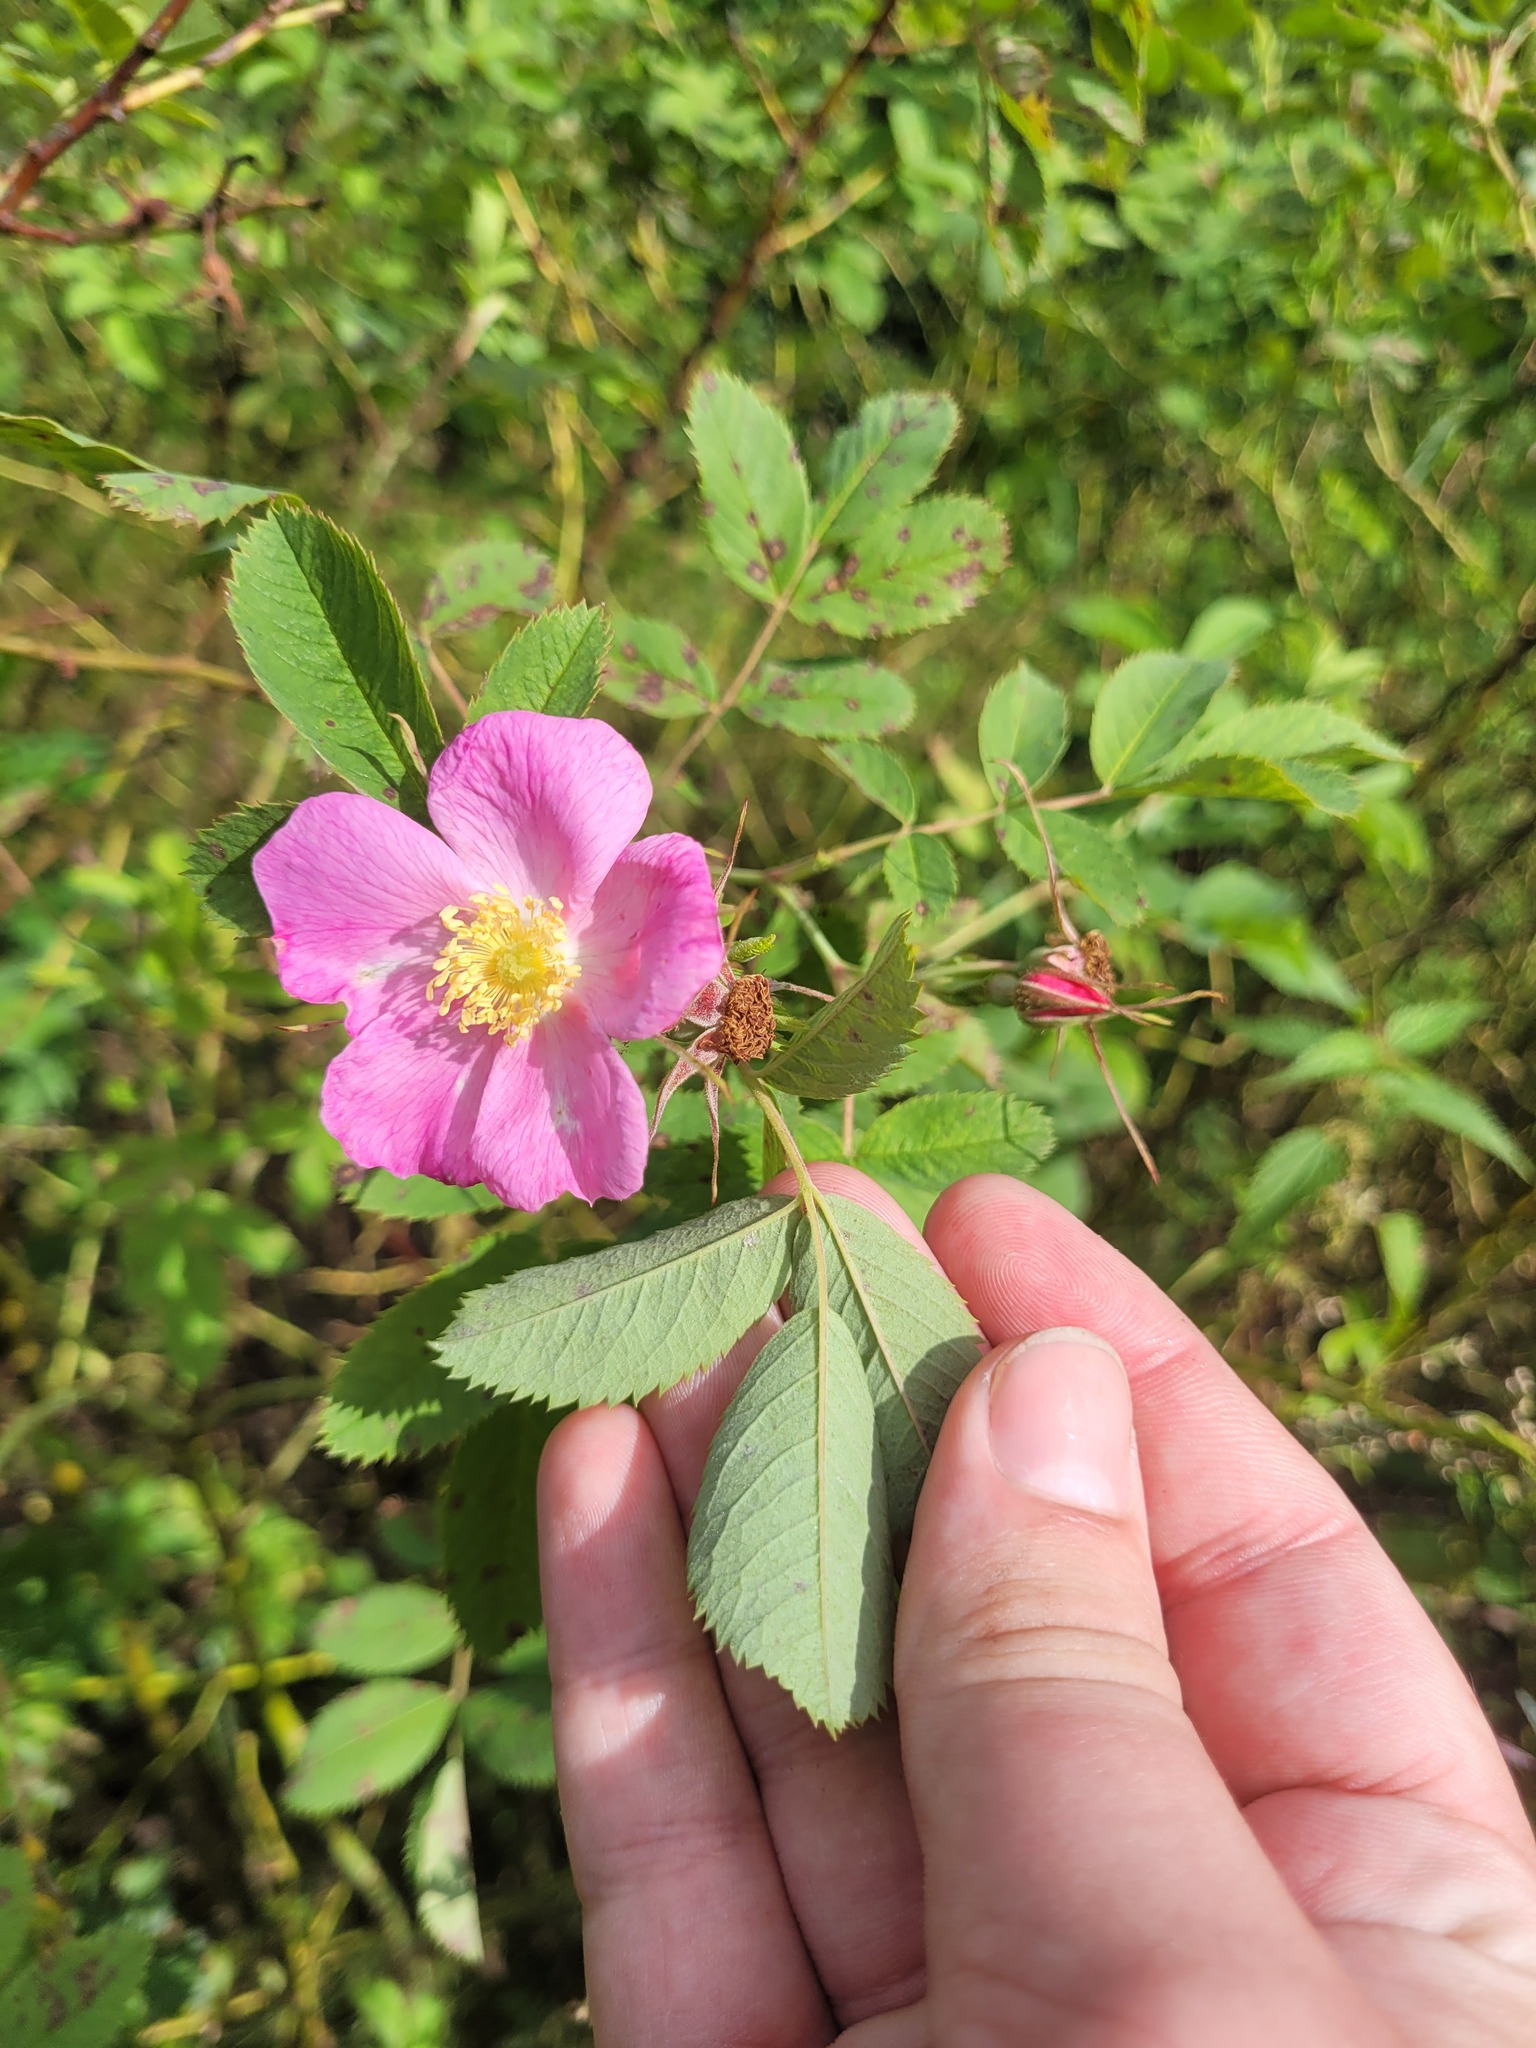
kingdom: Plantae
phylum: Tracheophyta
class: Magnoliopsida
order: Rosales
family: Rosaceae
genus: Rosa
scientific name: Rosa majalis
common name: Cinnamon rose
